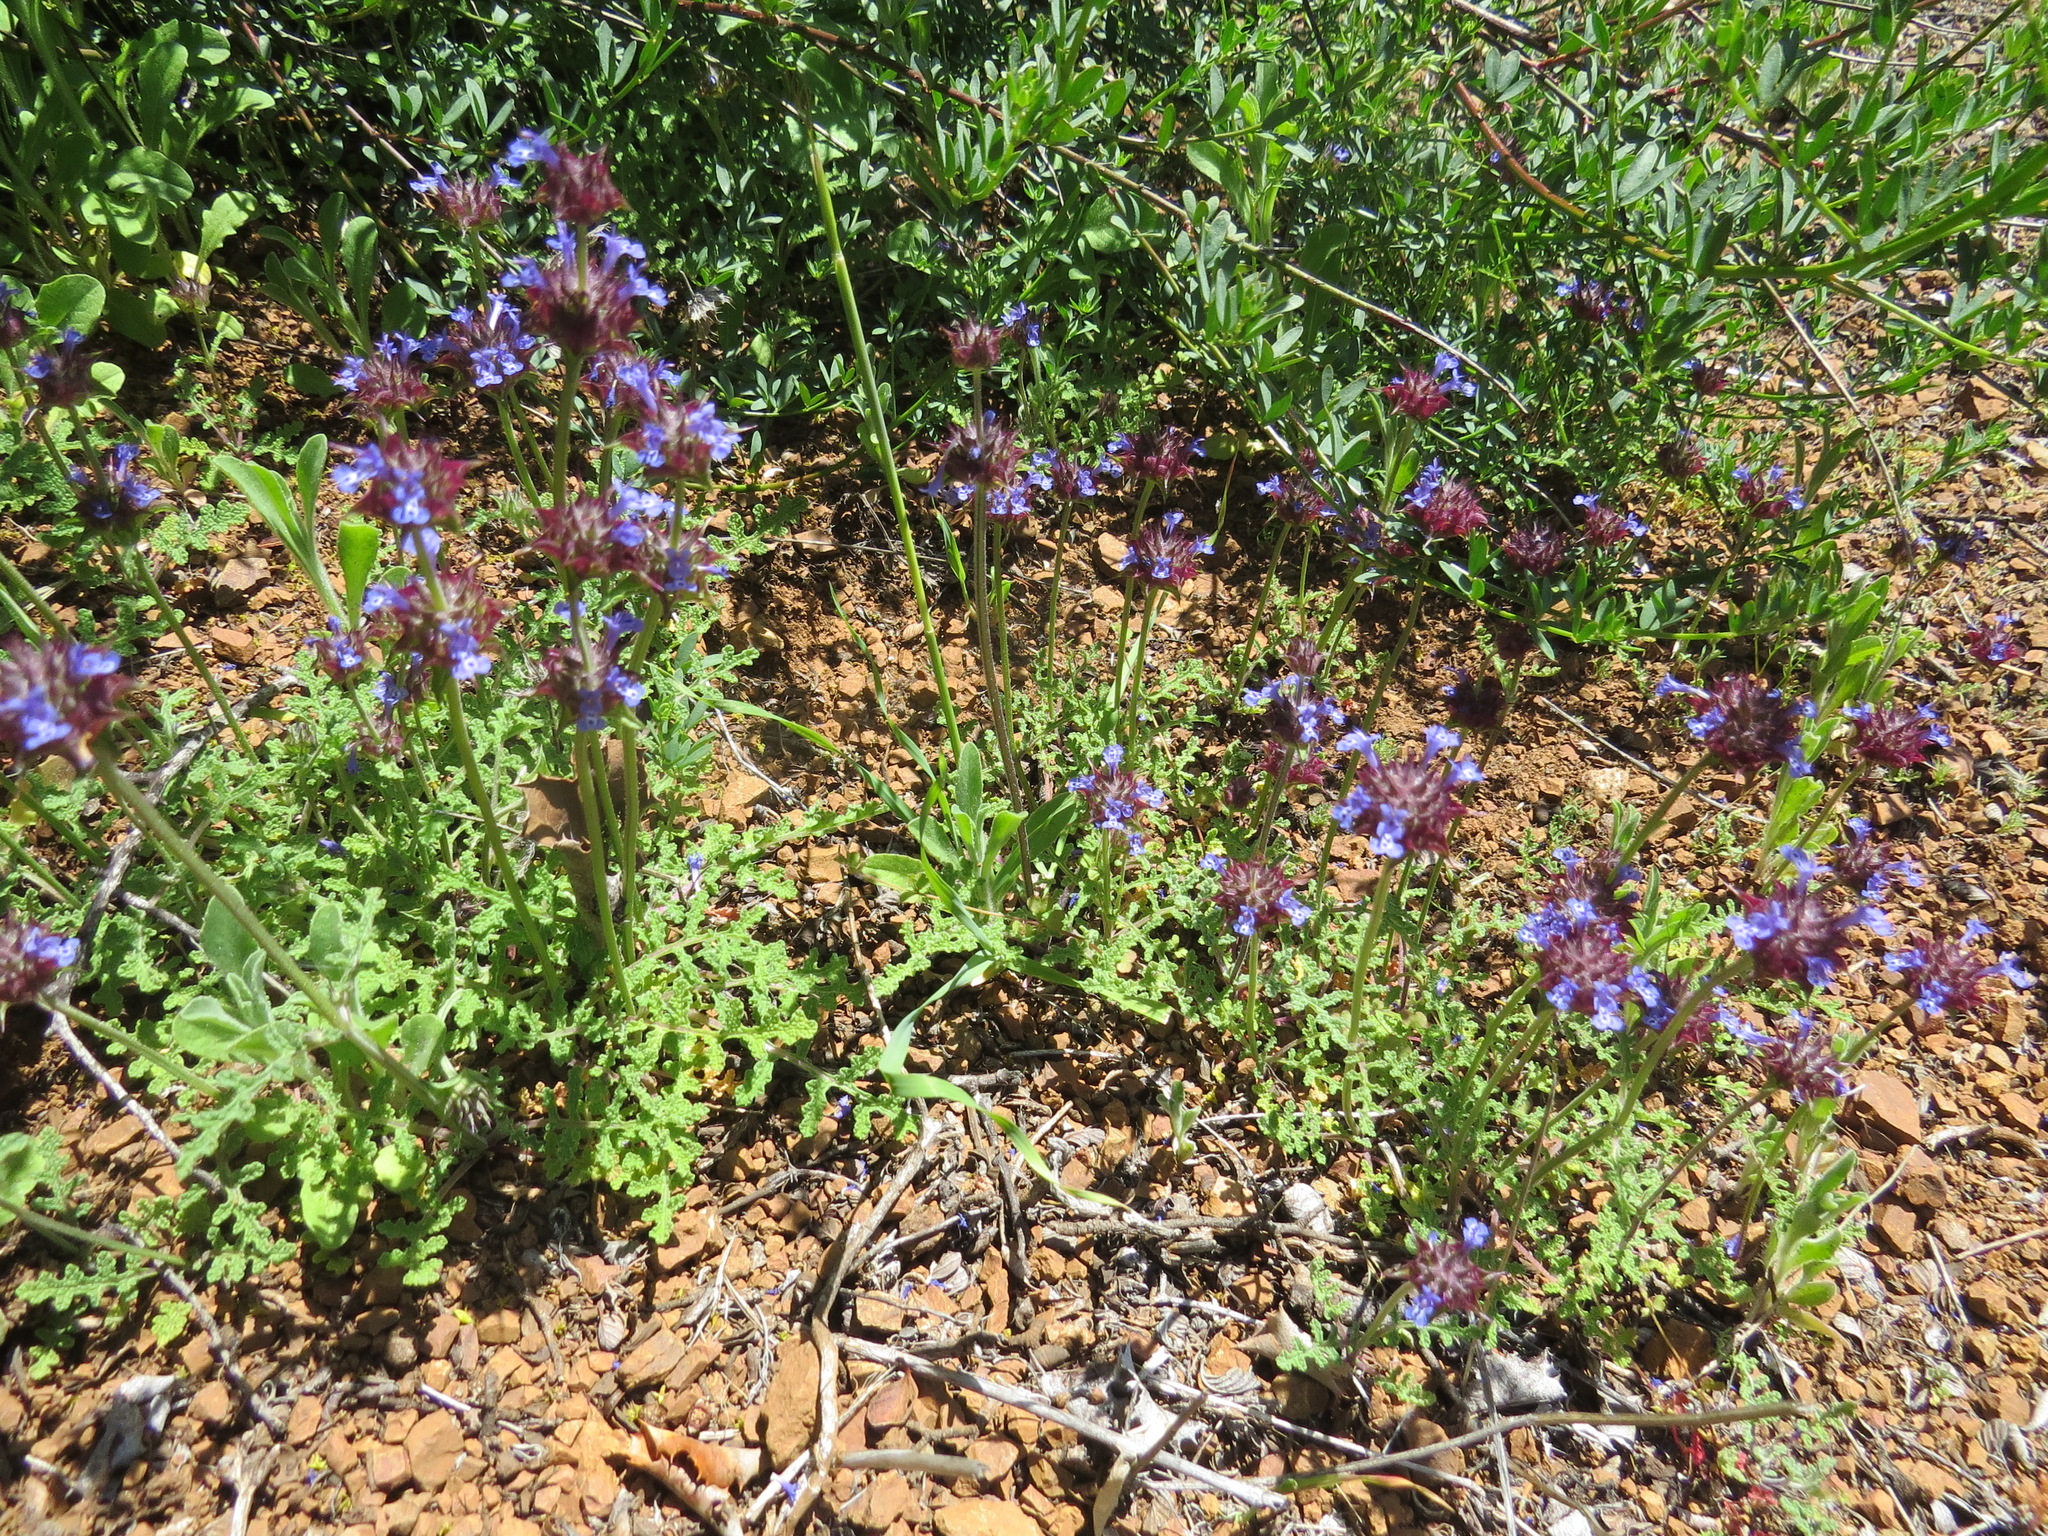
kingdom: Plantae
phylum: Tracheophyta
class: Magnoliopsida
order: Lamiales
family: Lamiaceae
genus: Salvia
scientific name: Salvia columbariae
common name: Chia
